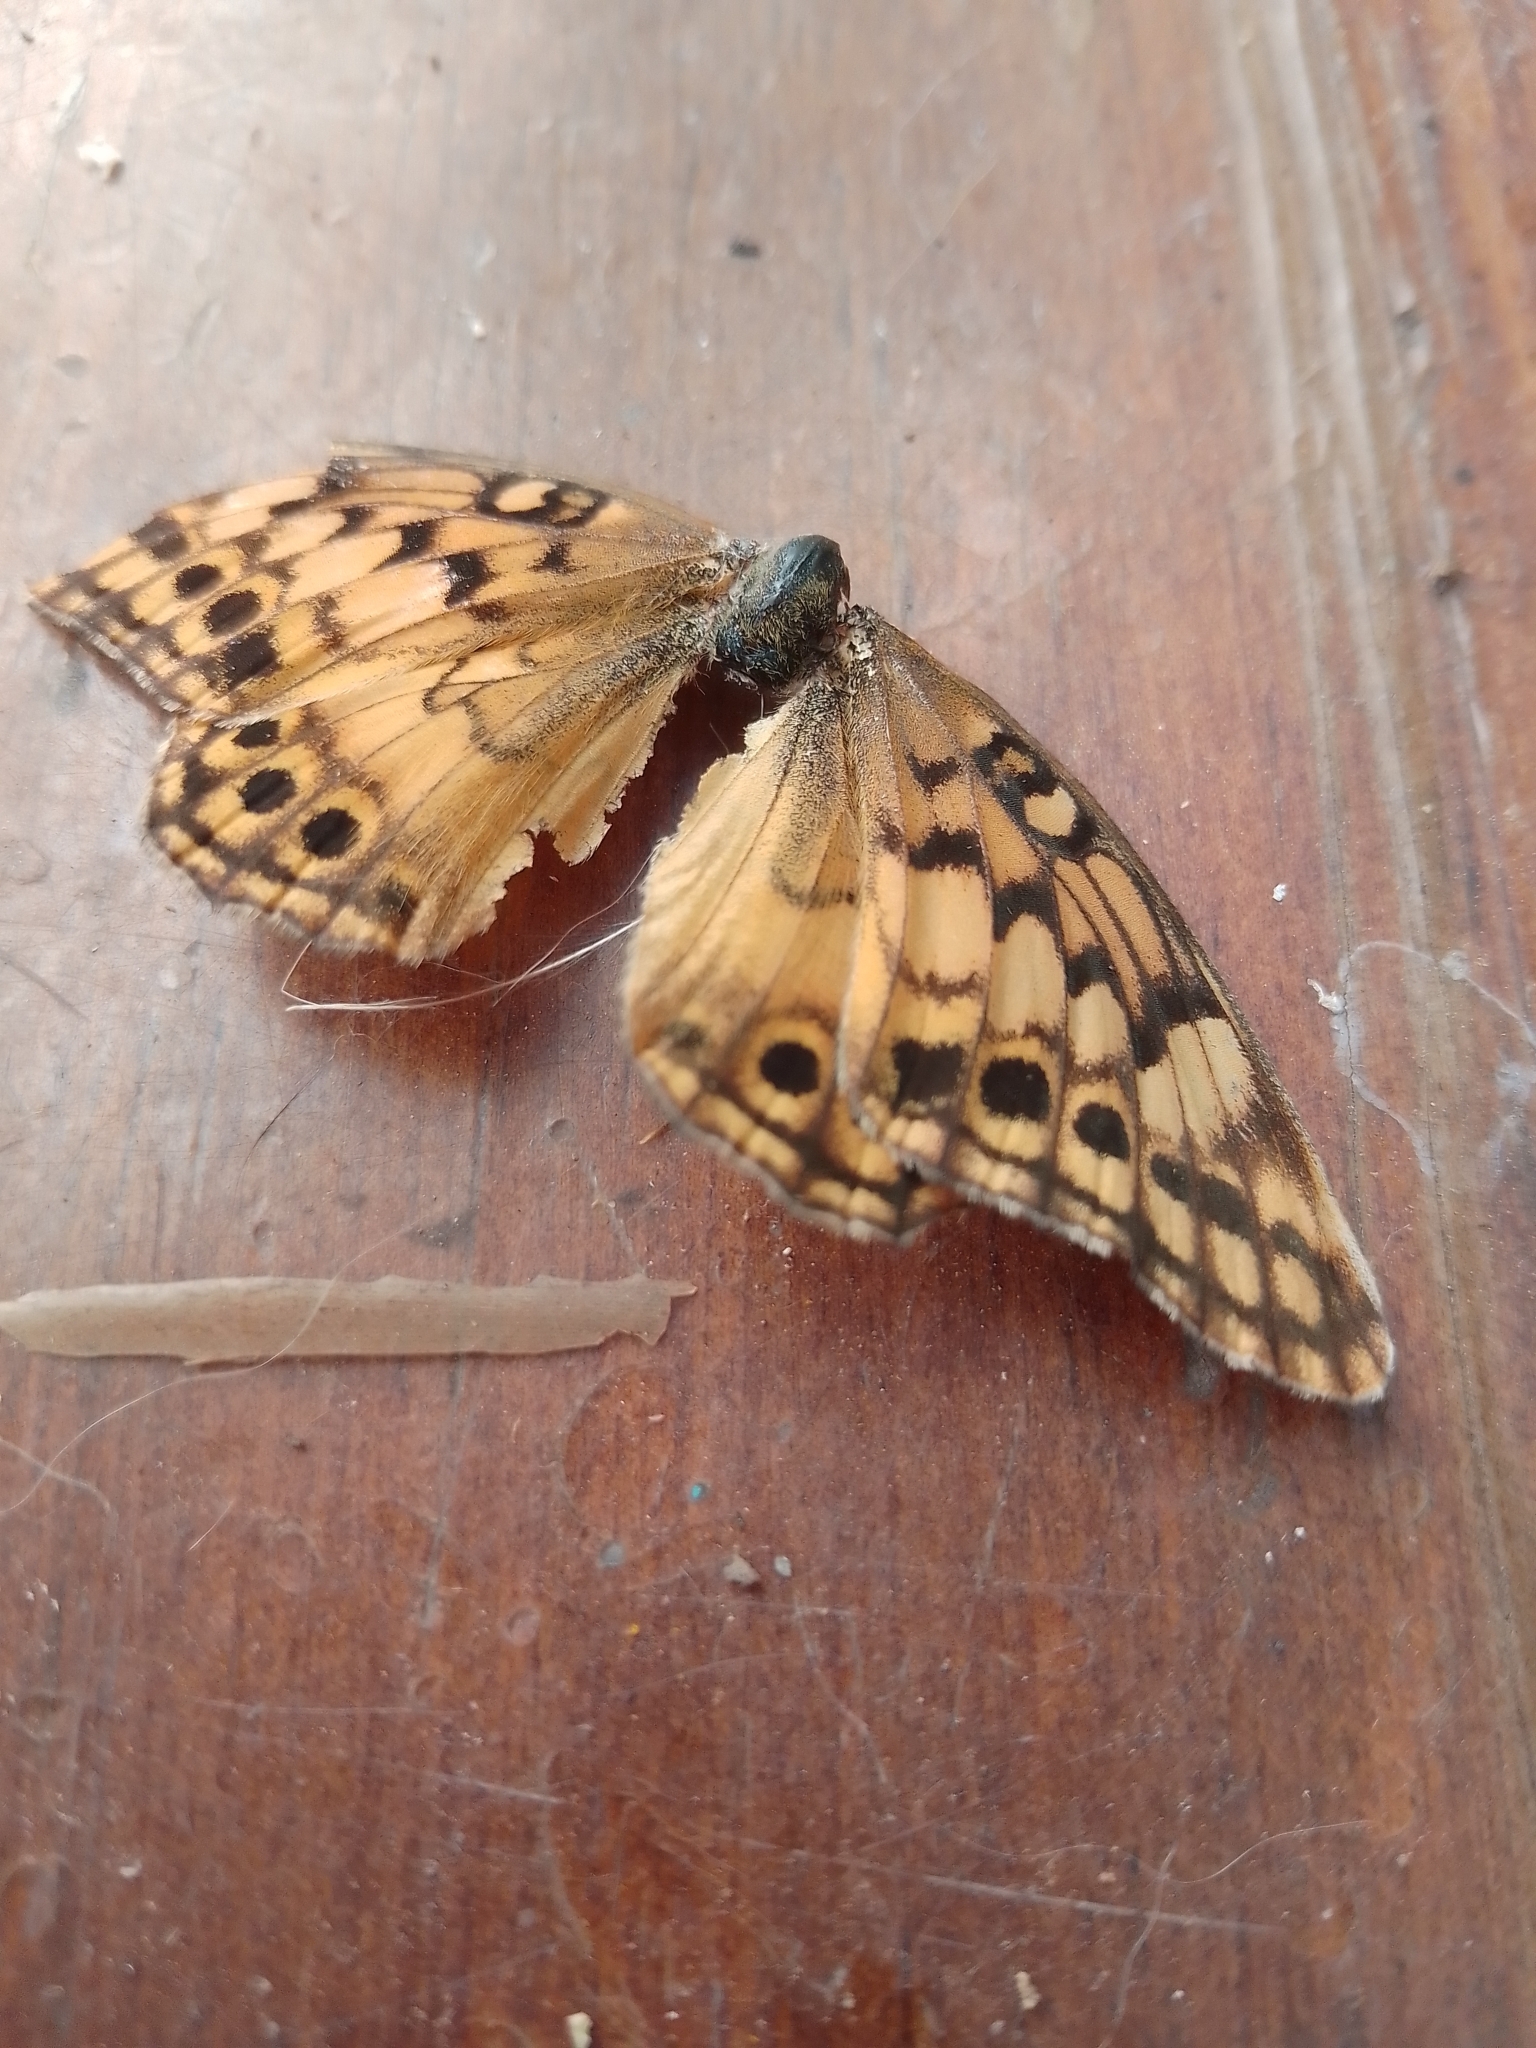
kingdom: Animalia
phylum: Arthropoda
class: Insecta
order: Lepidoptera
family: Nymphalidae
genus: Euptoieta
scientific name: Euptoieta hortensia
